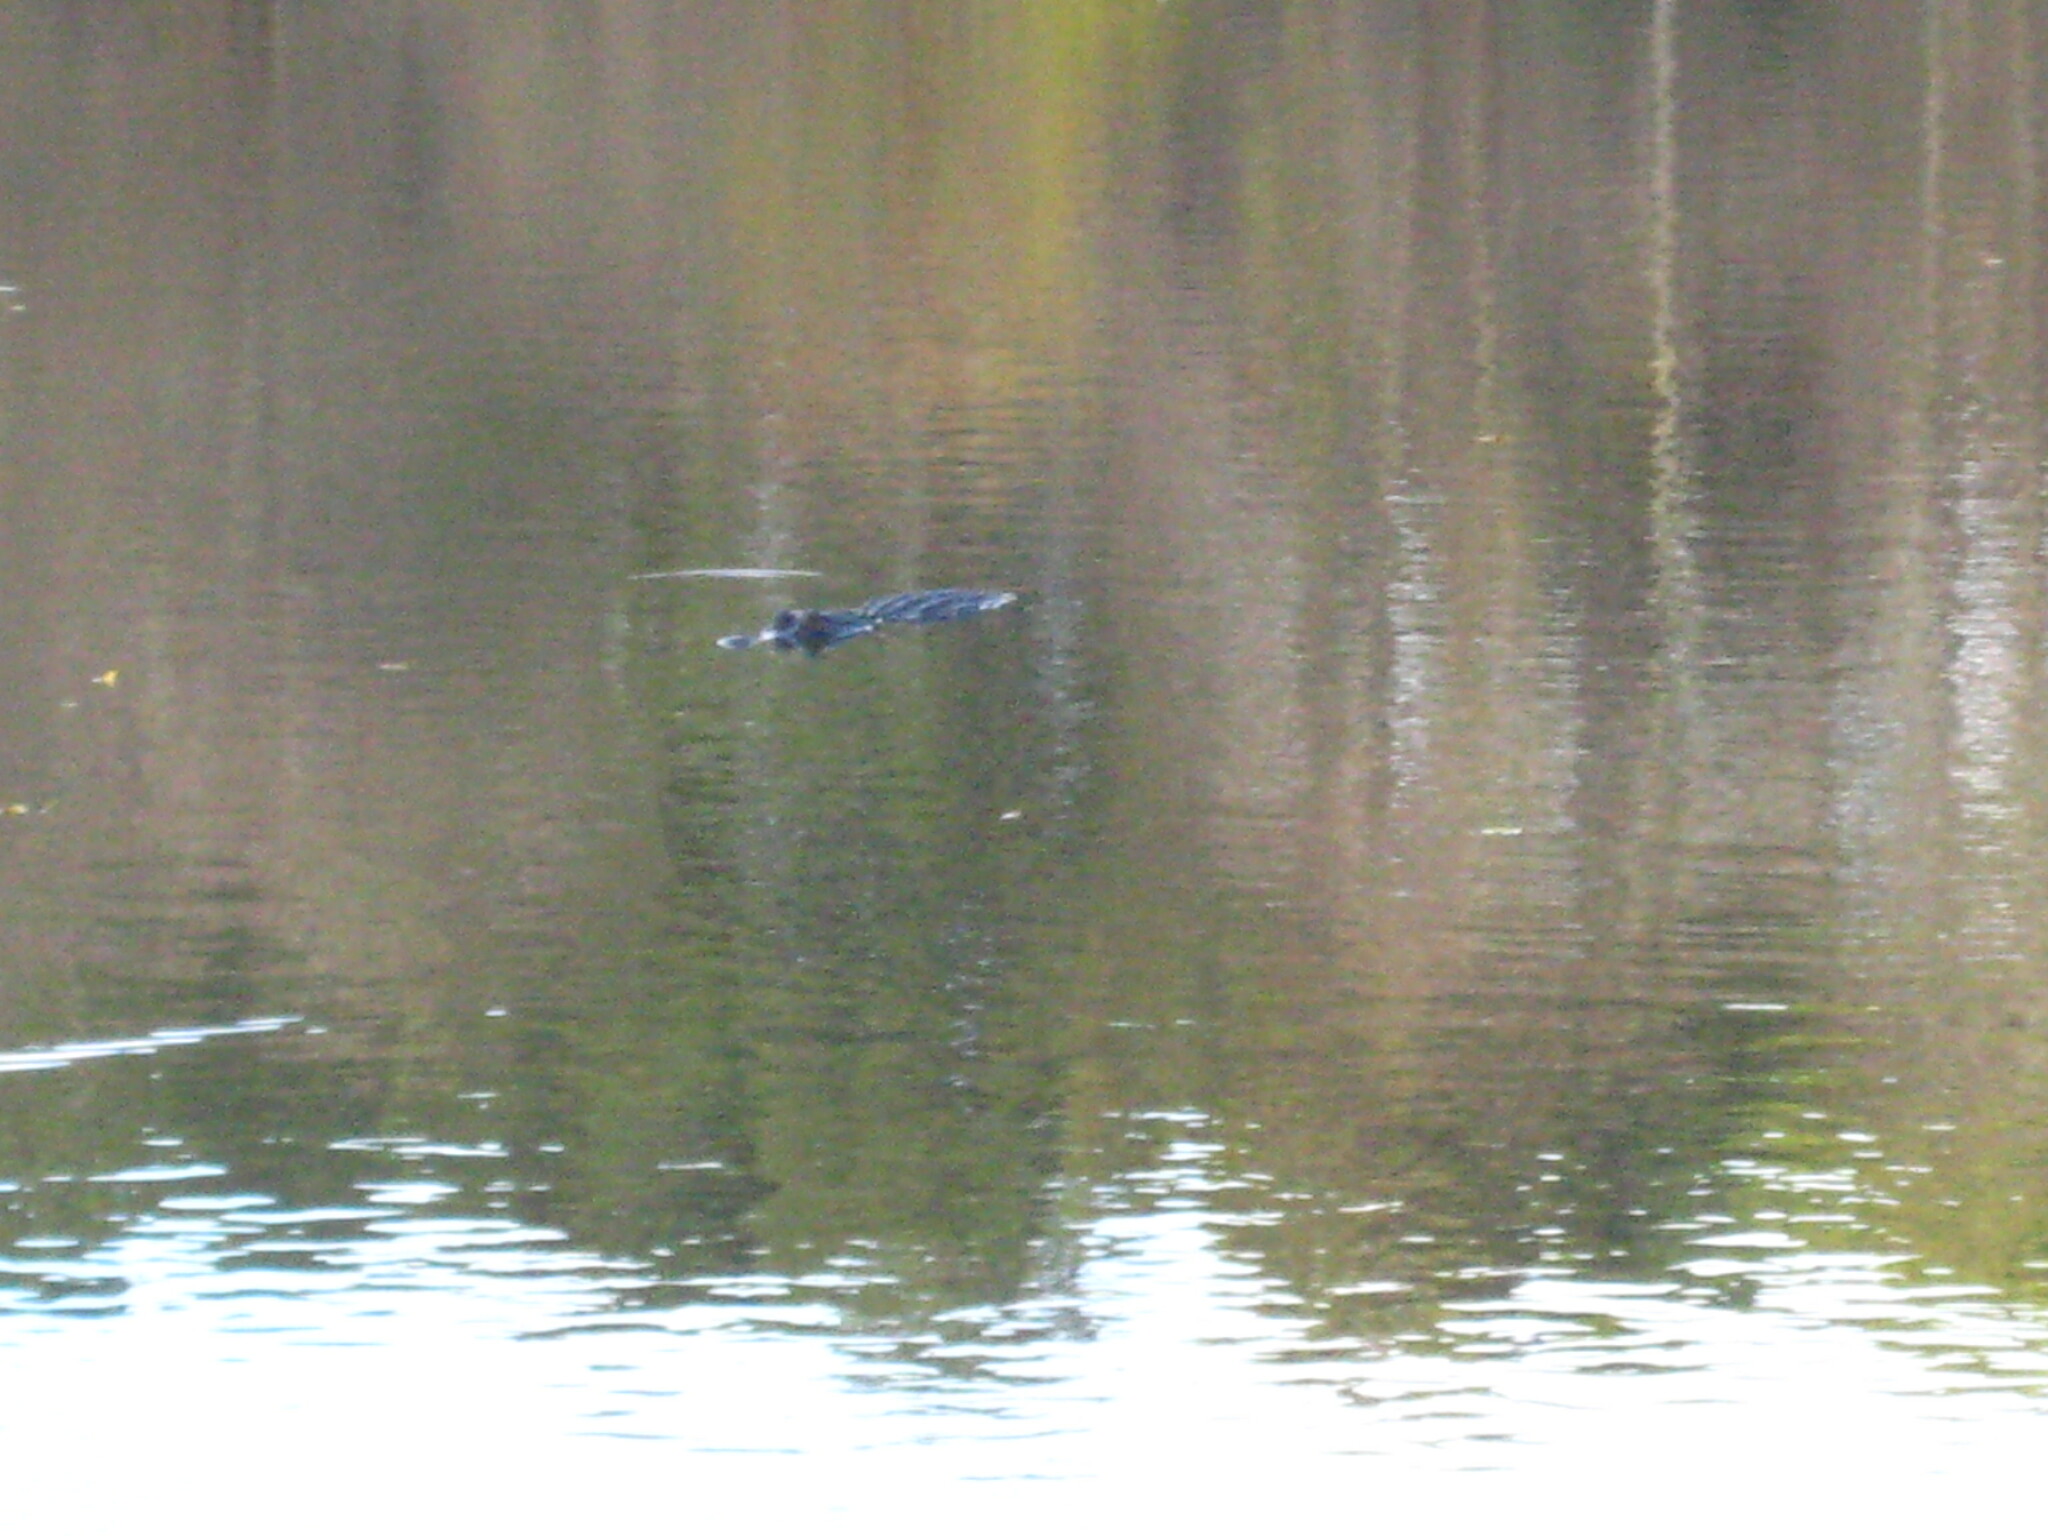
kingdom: Animalia
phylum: Chordata
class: Crocodylia
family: Alligatoridae
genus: Alligator
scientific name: Alligator mississippiensis
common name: American alligator
